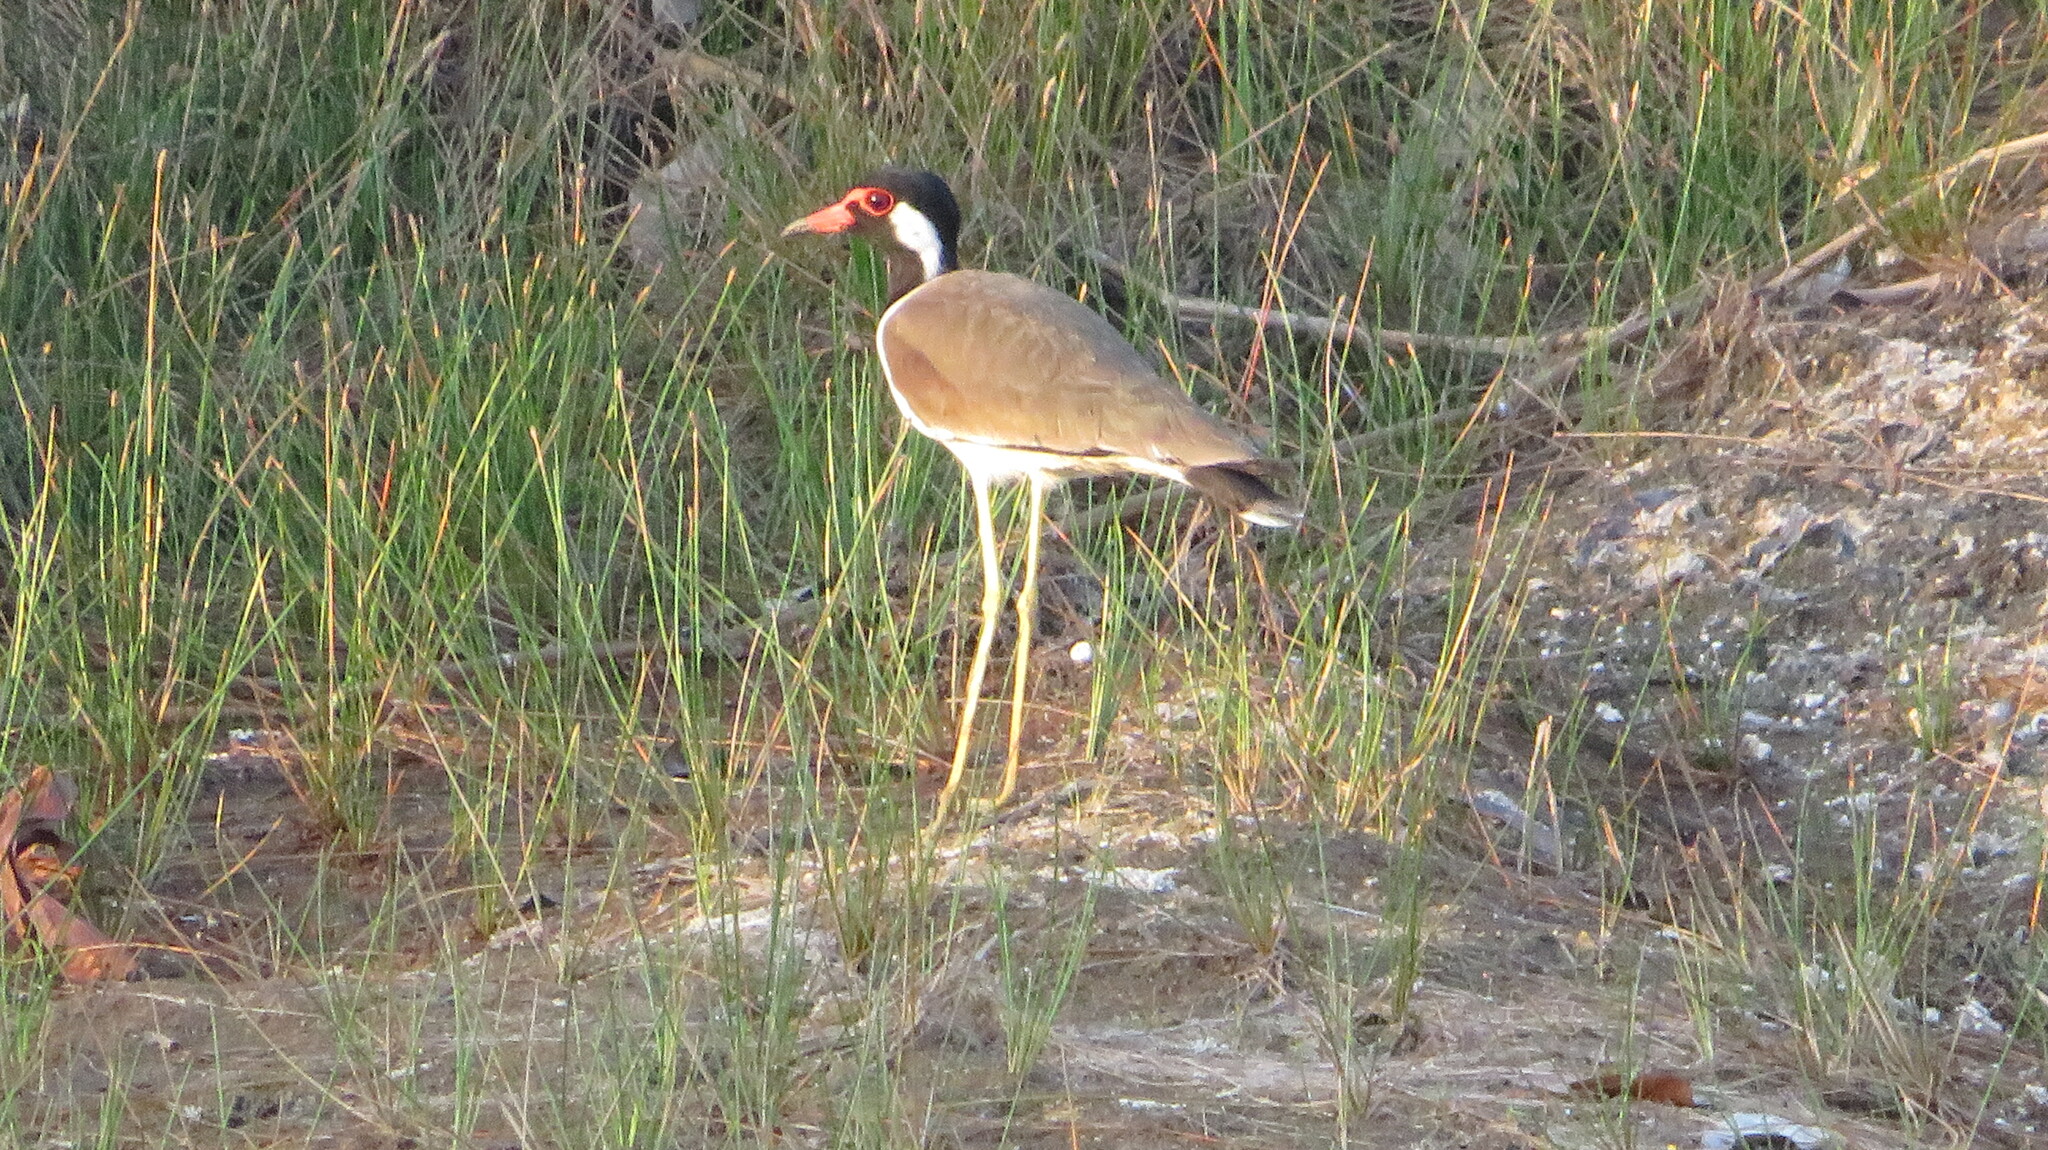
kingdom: Animalia
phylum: Chordata
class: Aves
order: Charadriiformes
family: Charadriidae
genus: Vanellus
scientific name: Vanellus indicus
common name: Red-wattled lapwing
